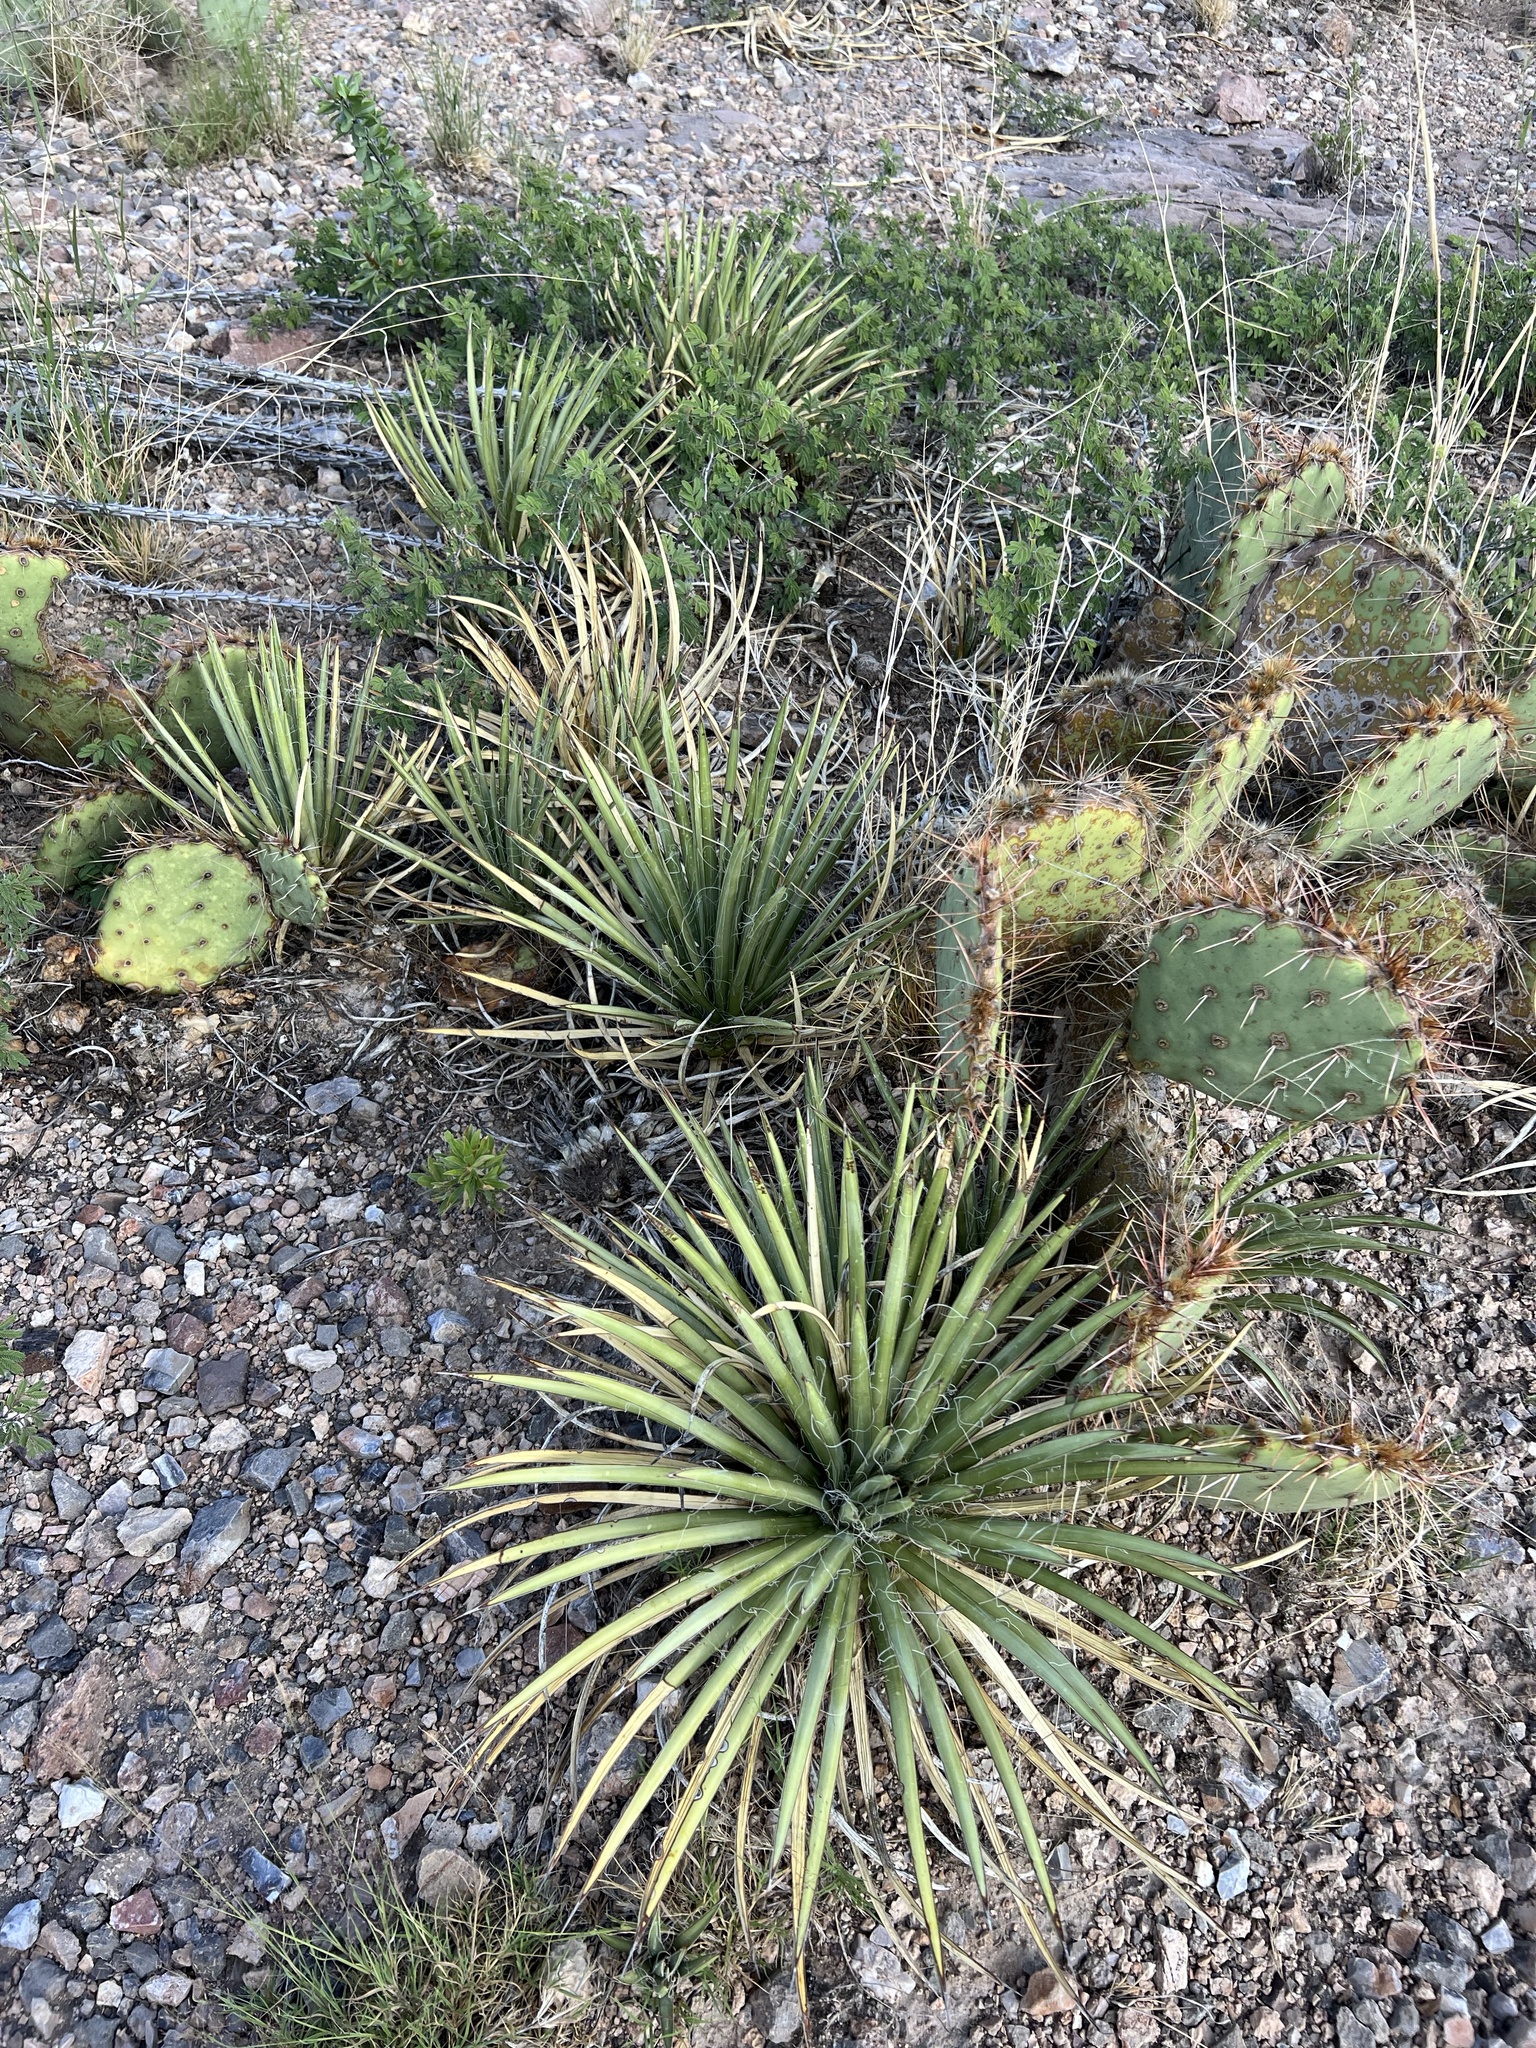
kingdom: Plantae
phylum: Tracheophyta
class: Liliopsida
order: Asparagales
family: Asparagaceae
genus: Agave
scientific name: Agave schottii
